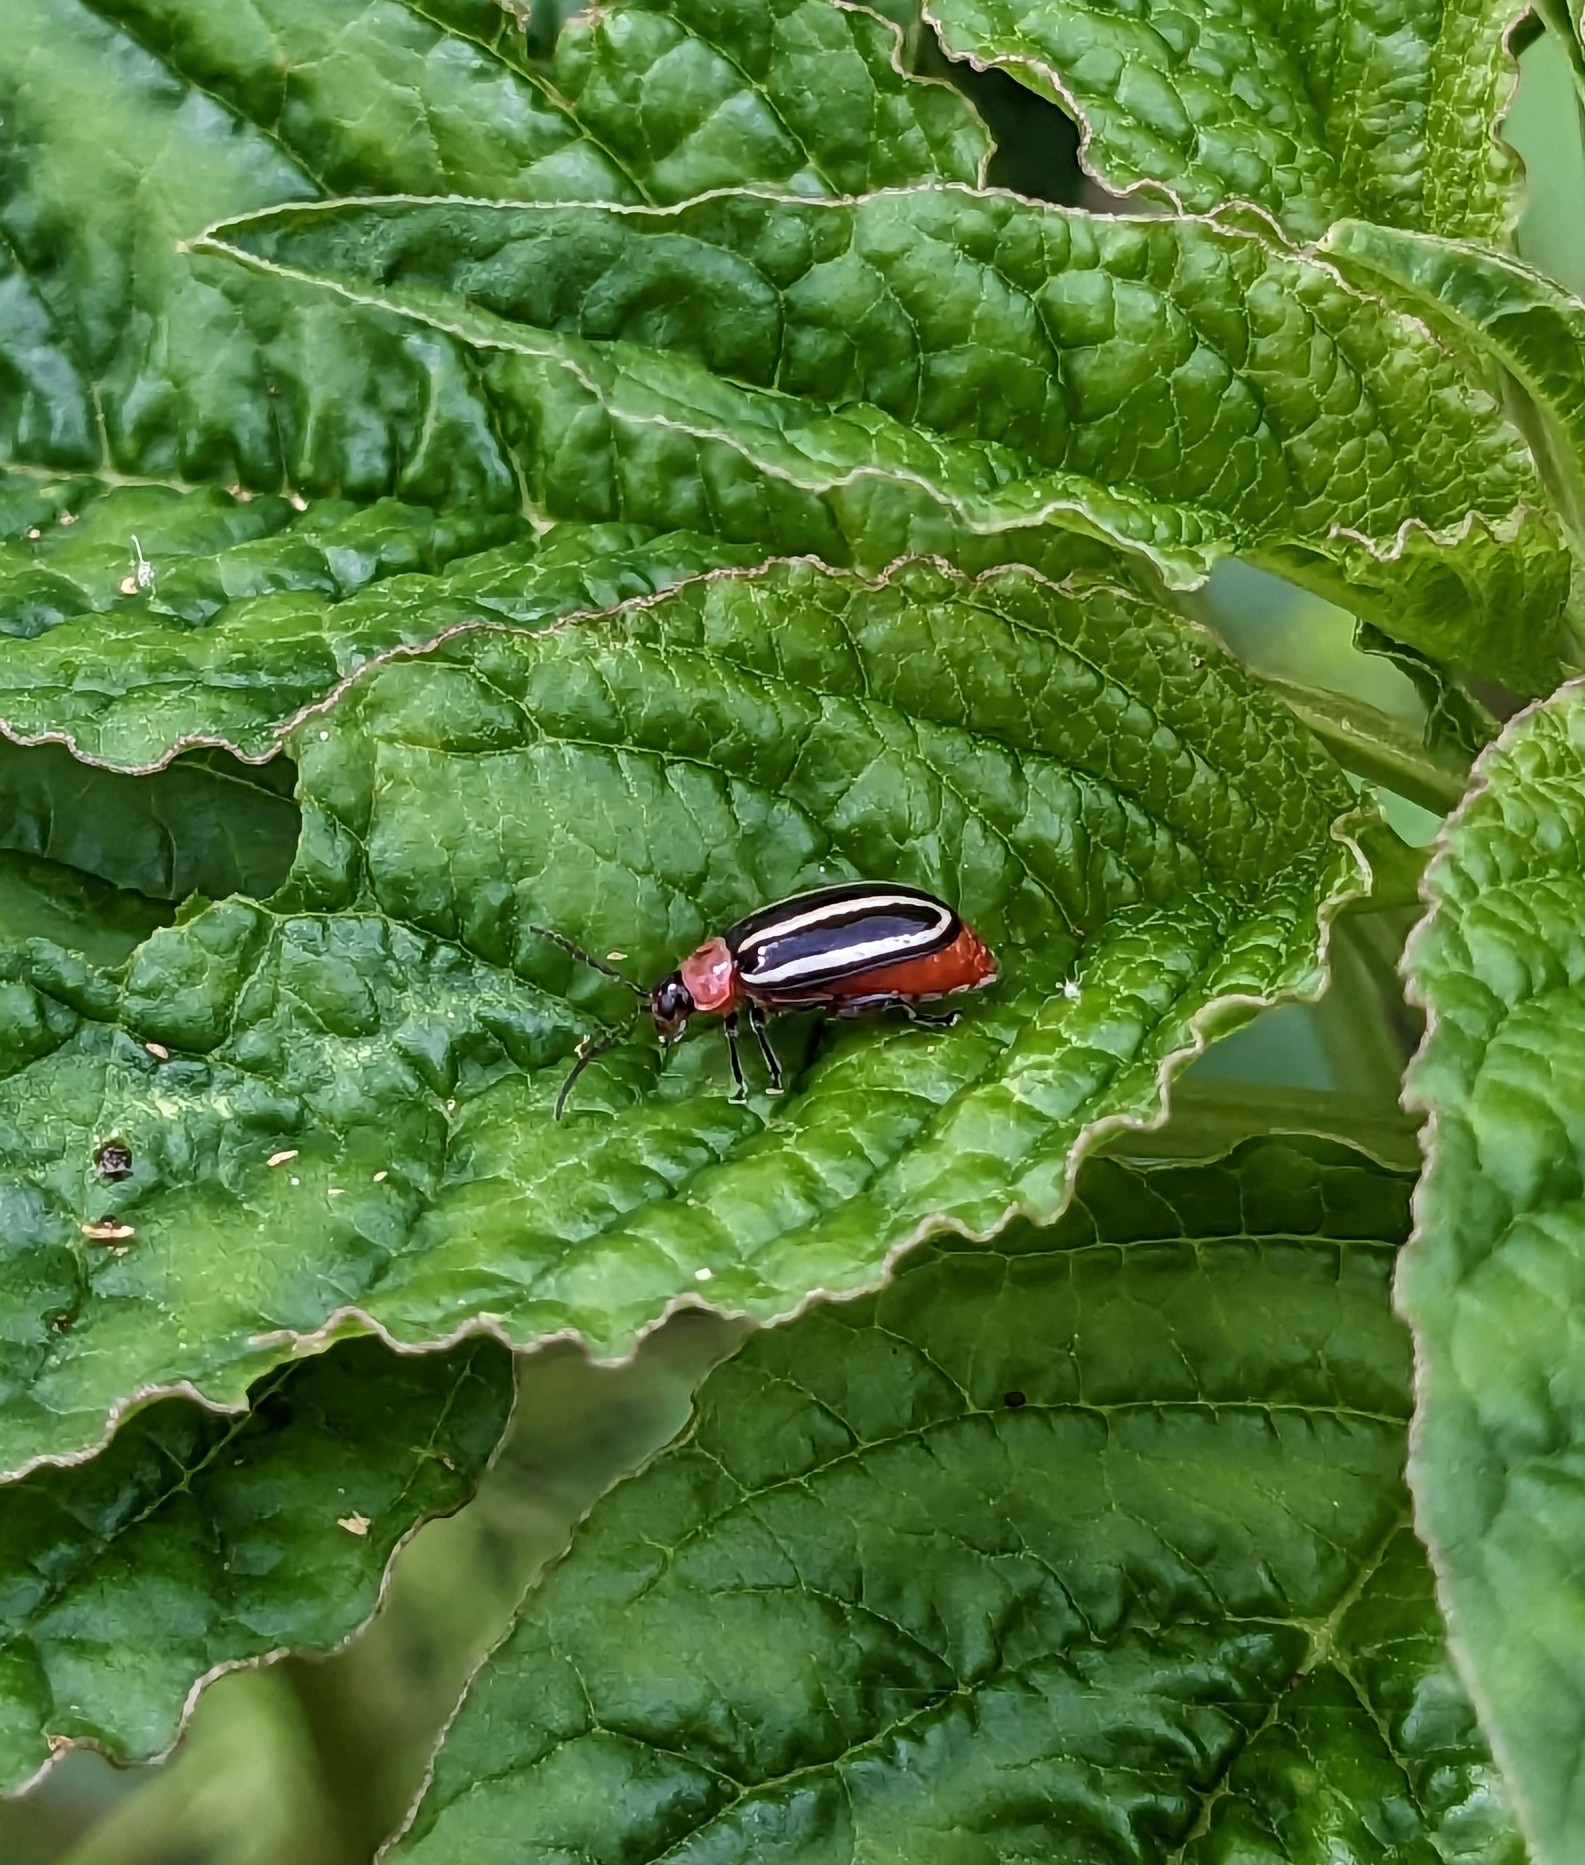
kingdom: Animalia
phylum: Arthropoda
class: Insecta
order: Coleoptera
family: Chrysomelidae
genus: Disonycha
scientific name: Disonycha glabrata
